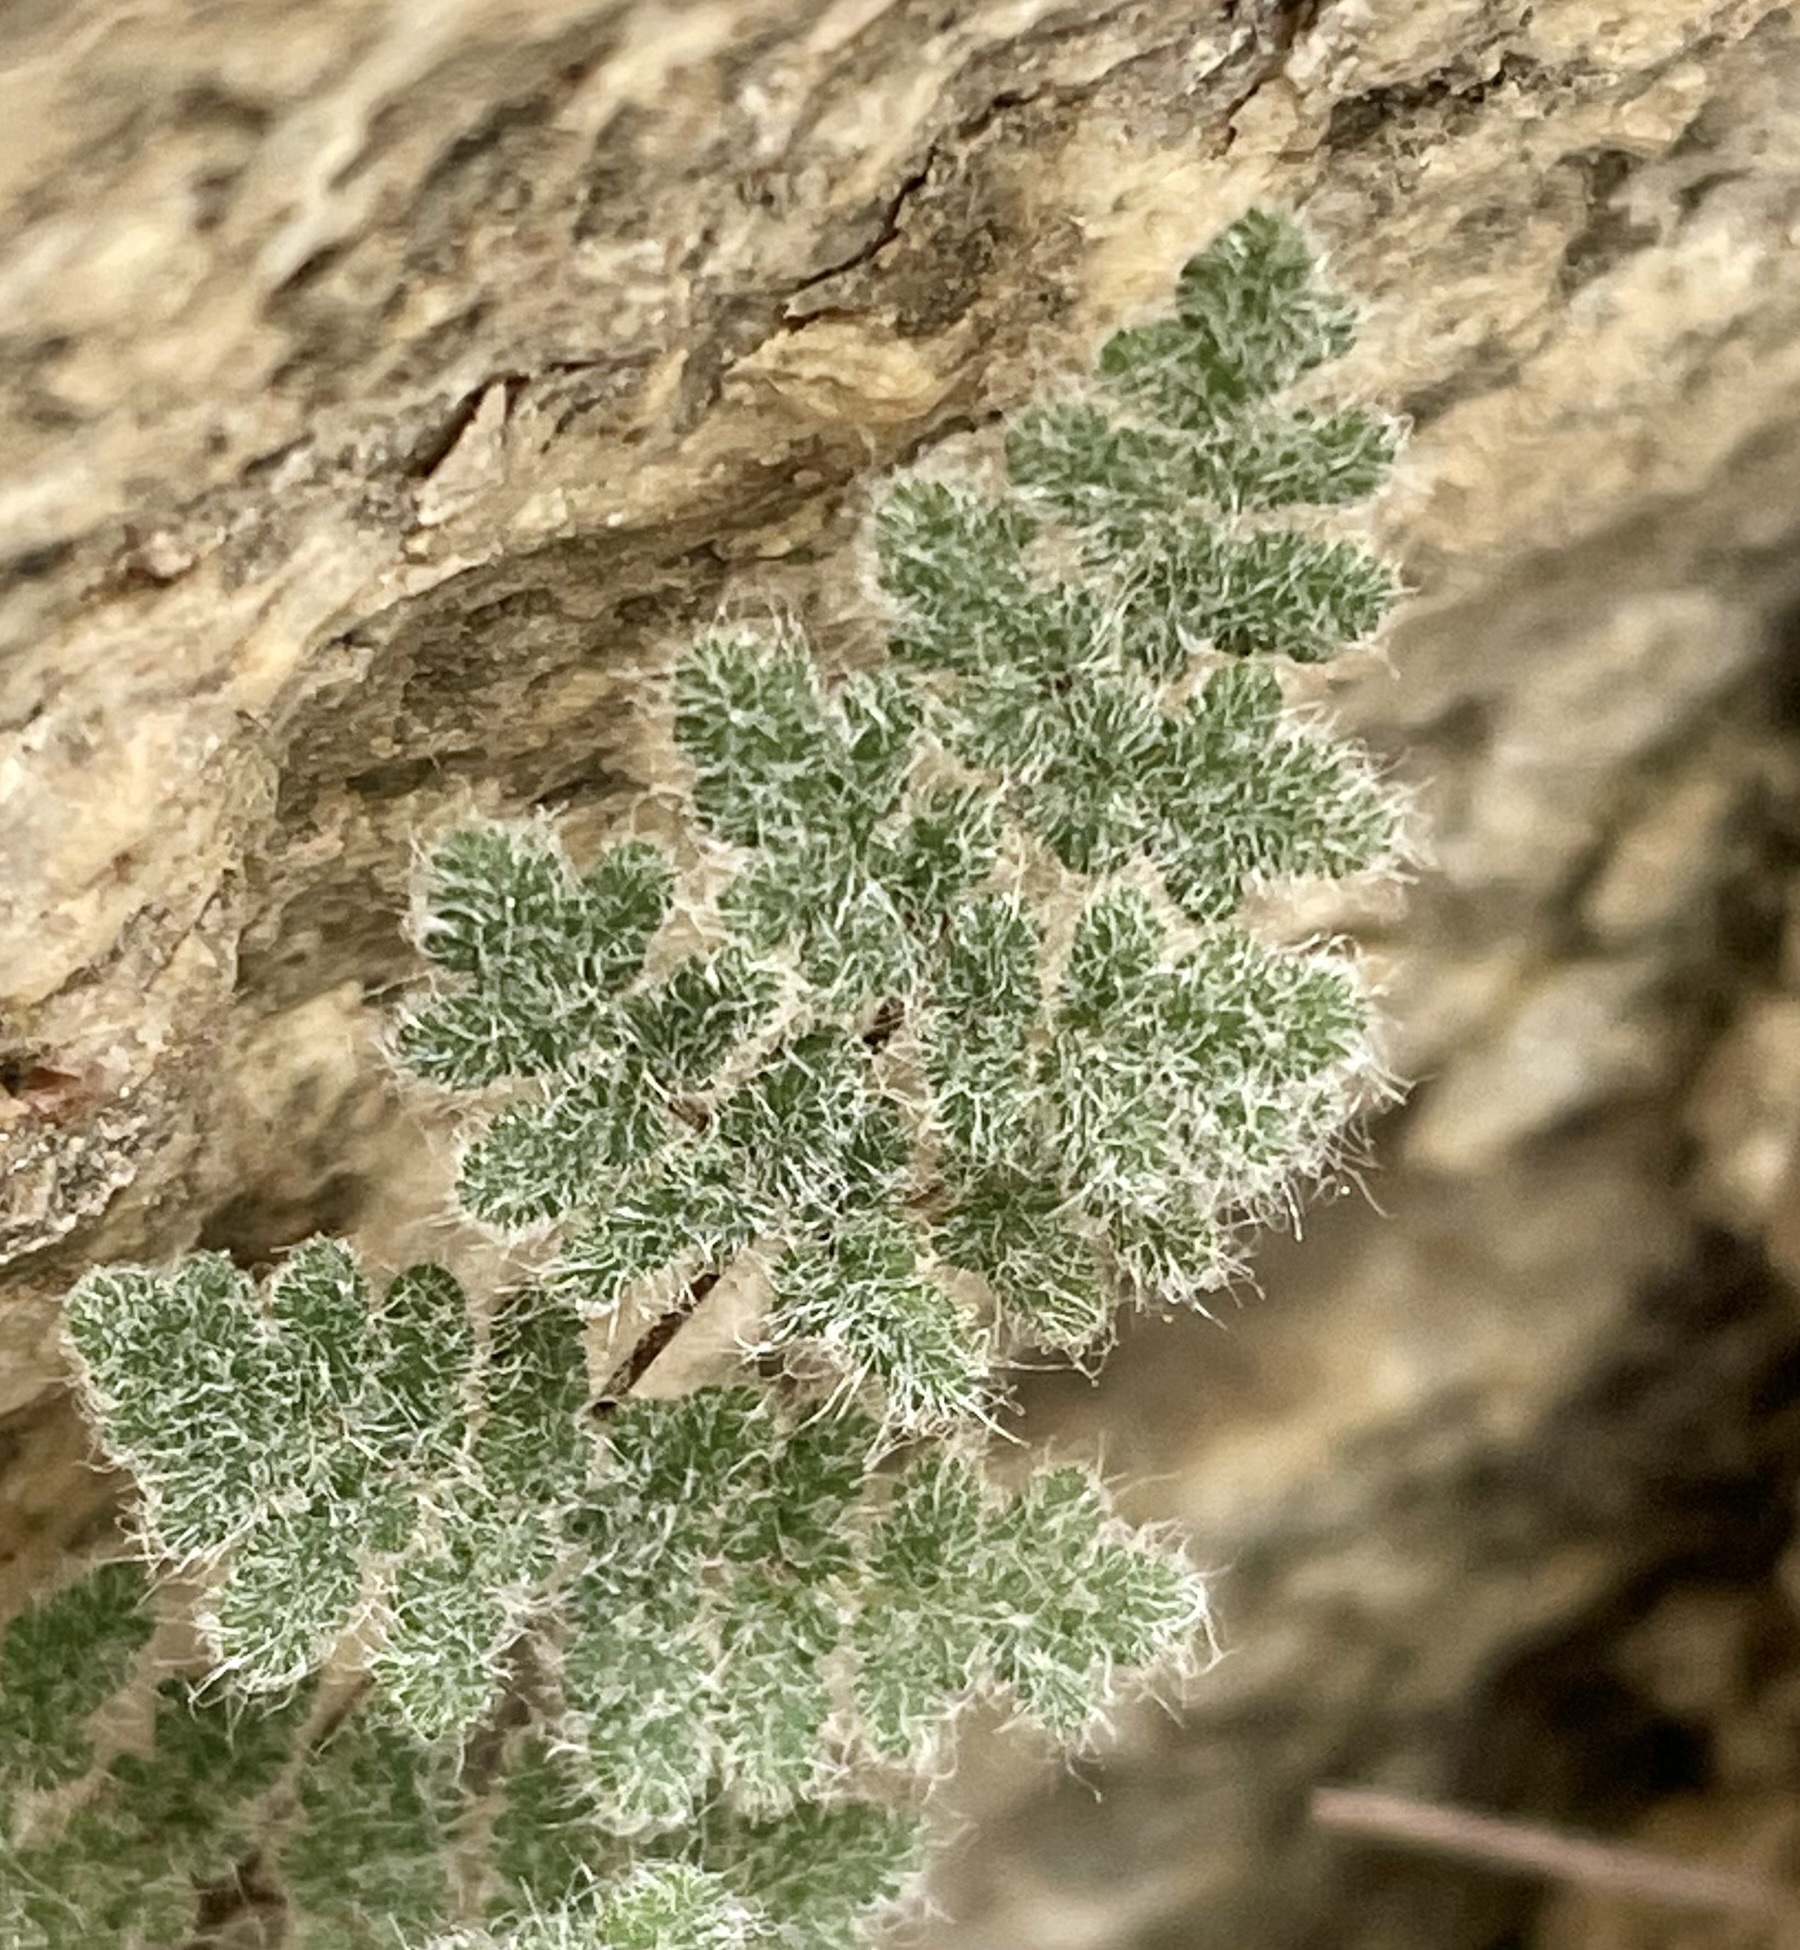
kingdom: Plantae
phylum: Tracheophyta
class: Polypodiopsida
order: Polypodiales
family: Pteridaceae
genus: Myriopteris
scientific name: Myriopteris parryi
